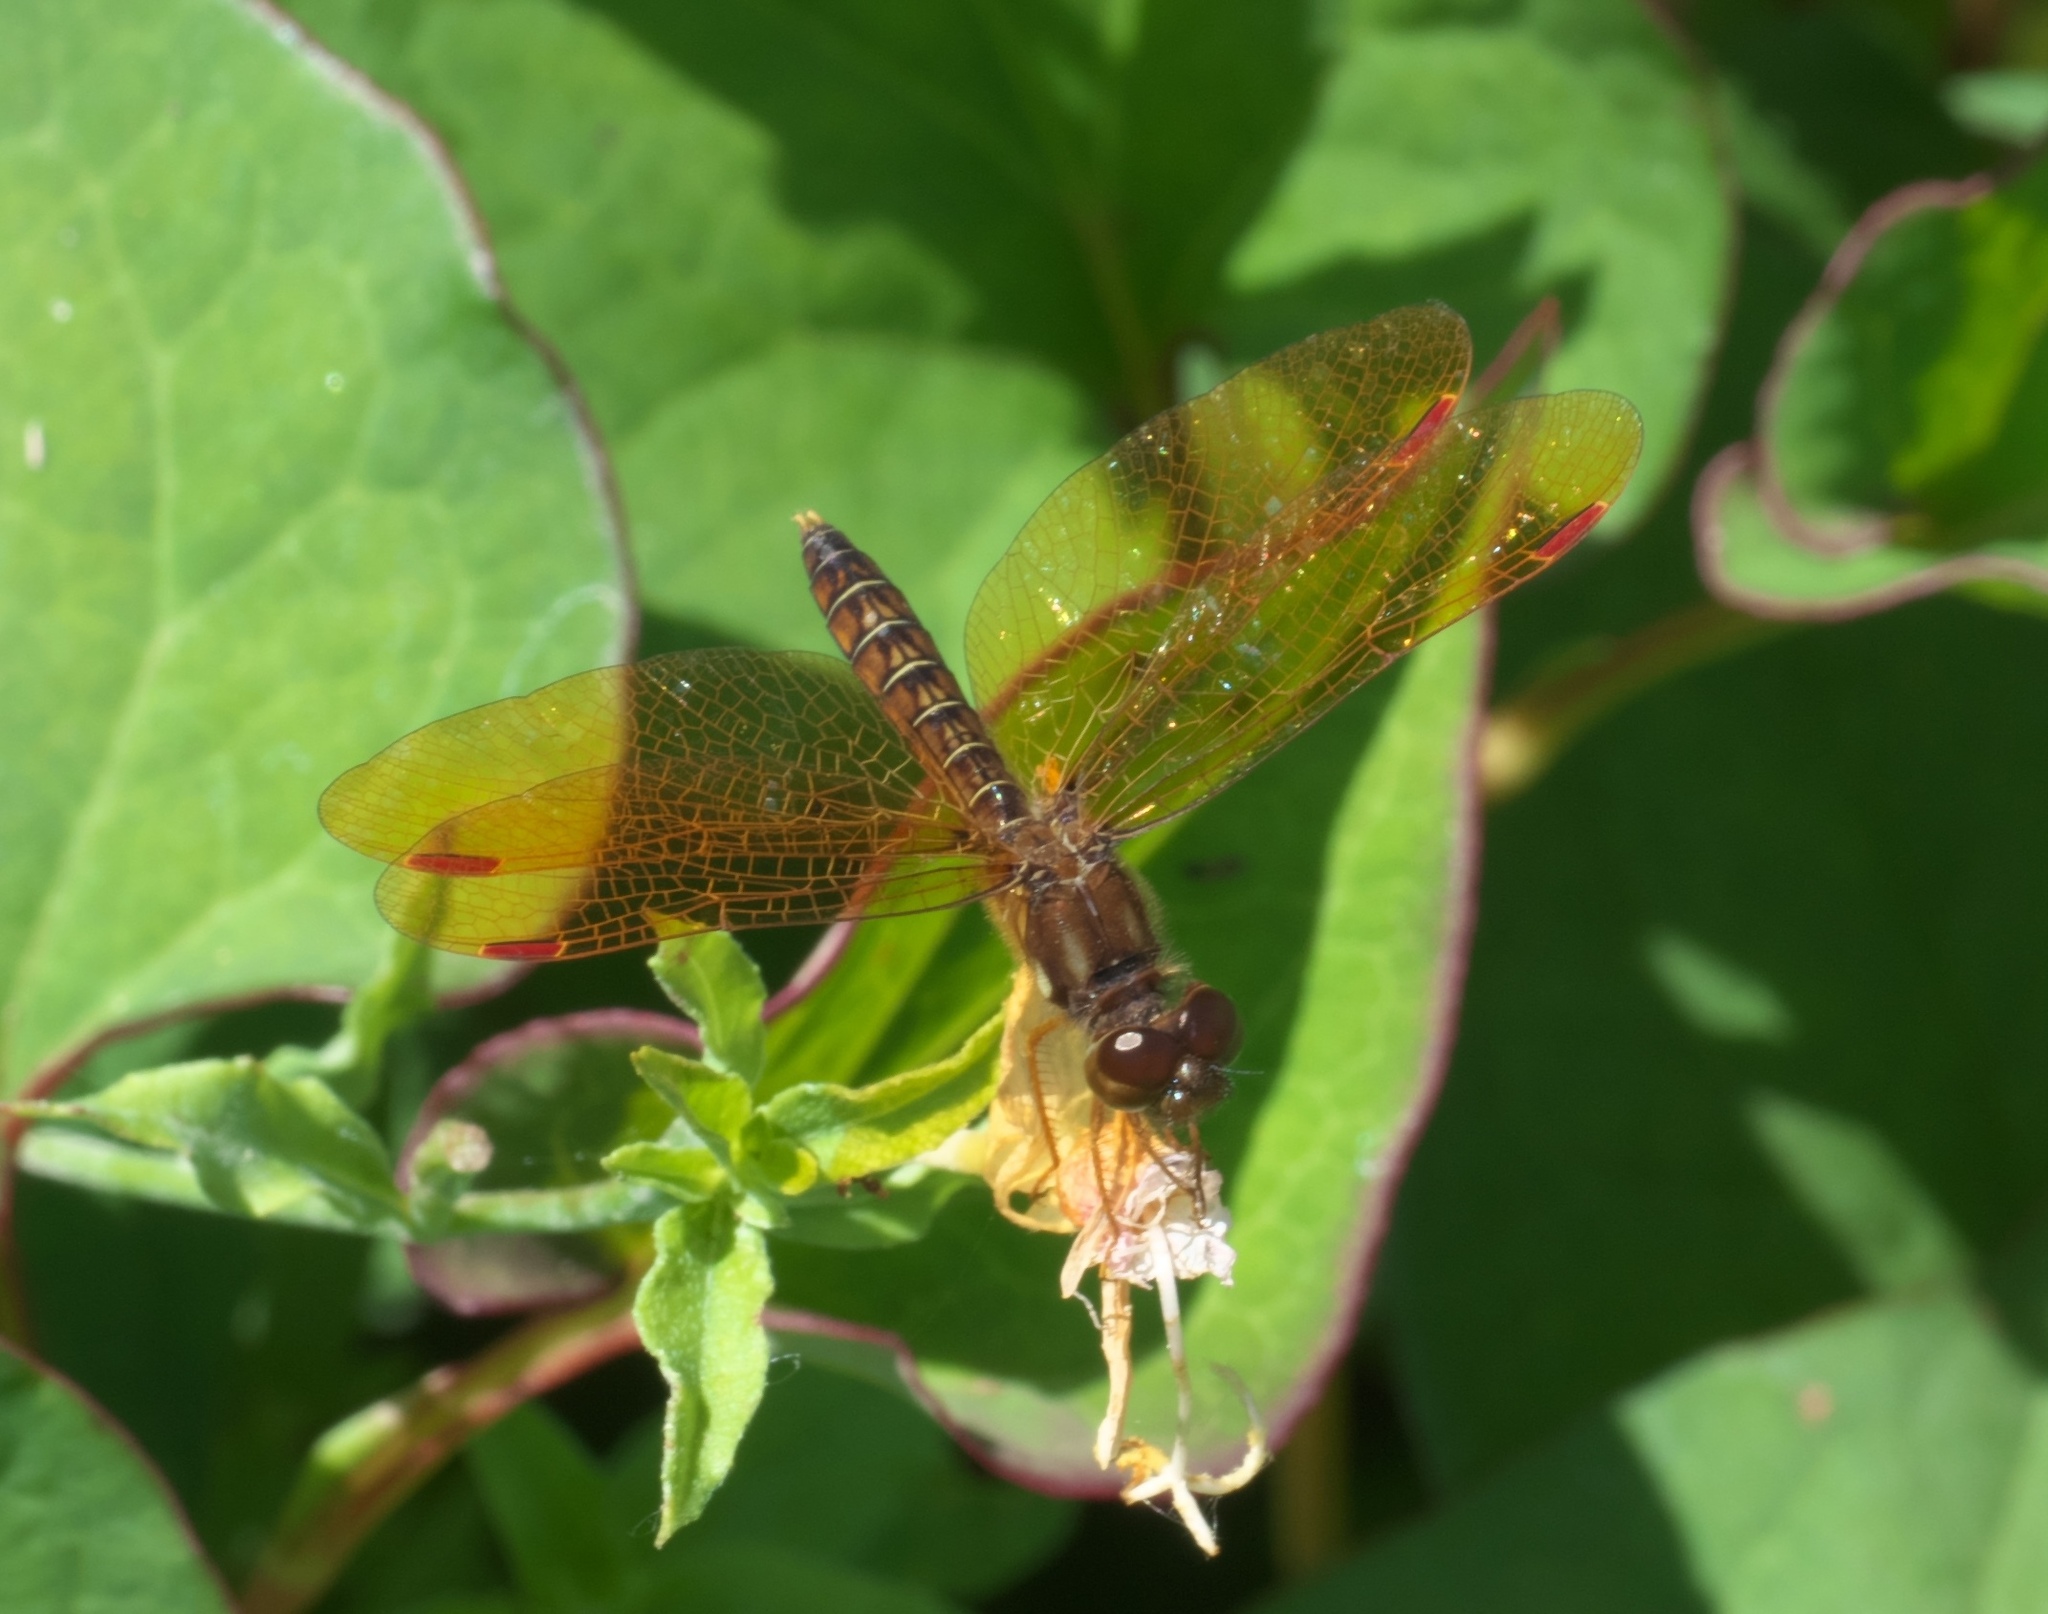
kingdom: Animalia
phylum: Arthropoda
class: Insecta
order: Odonata
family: Libellulidae
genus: Perithemis
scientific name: Perithemis tenera
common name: Eastern amberwing
